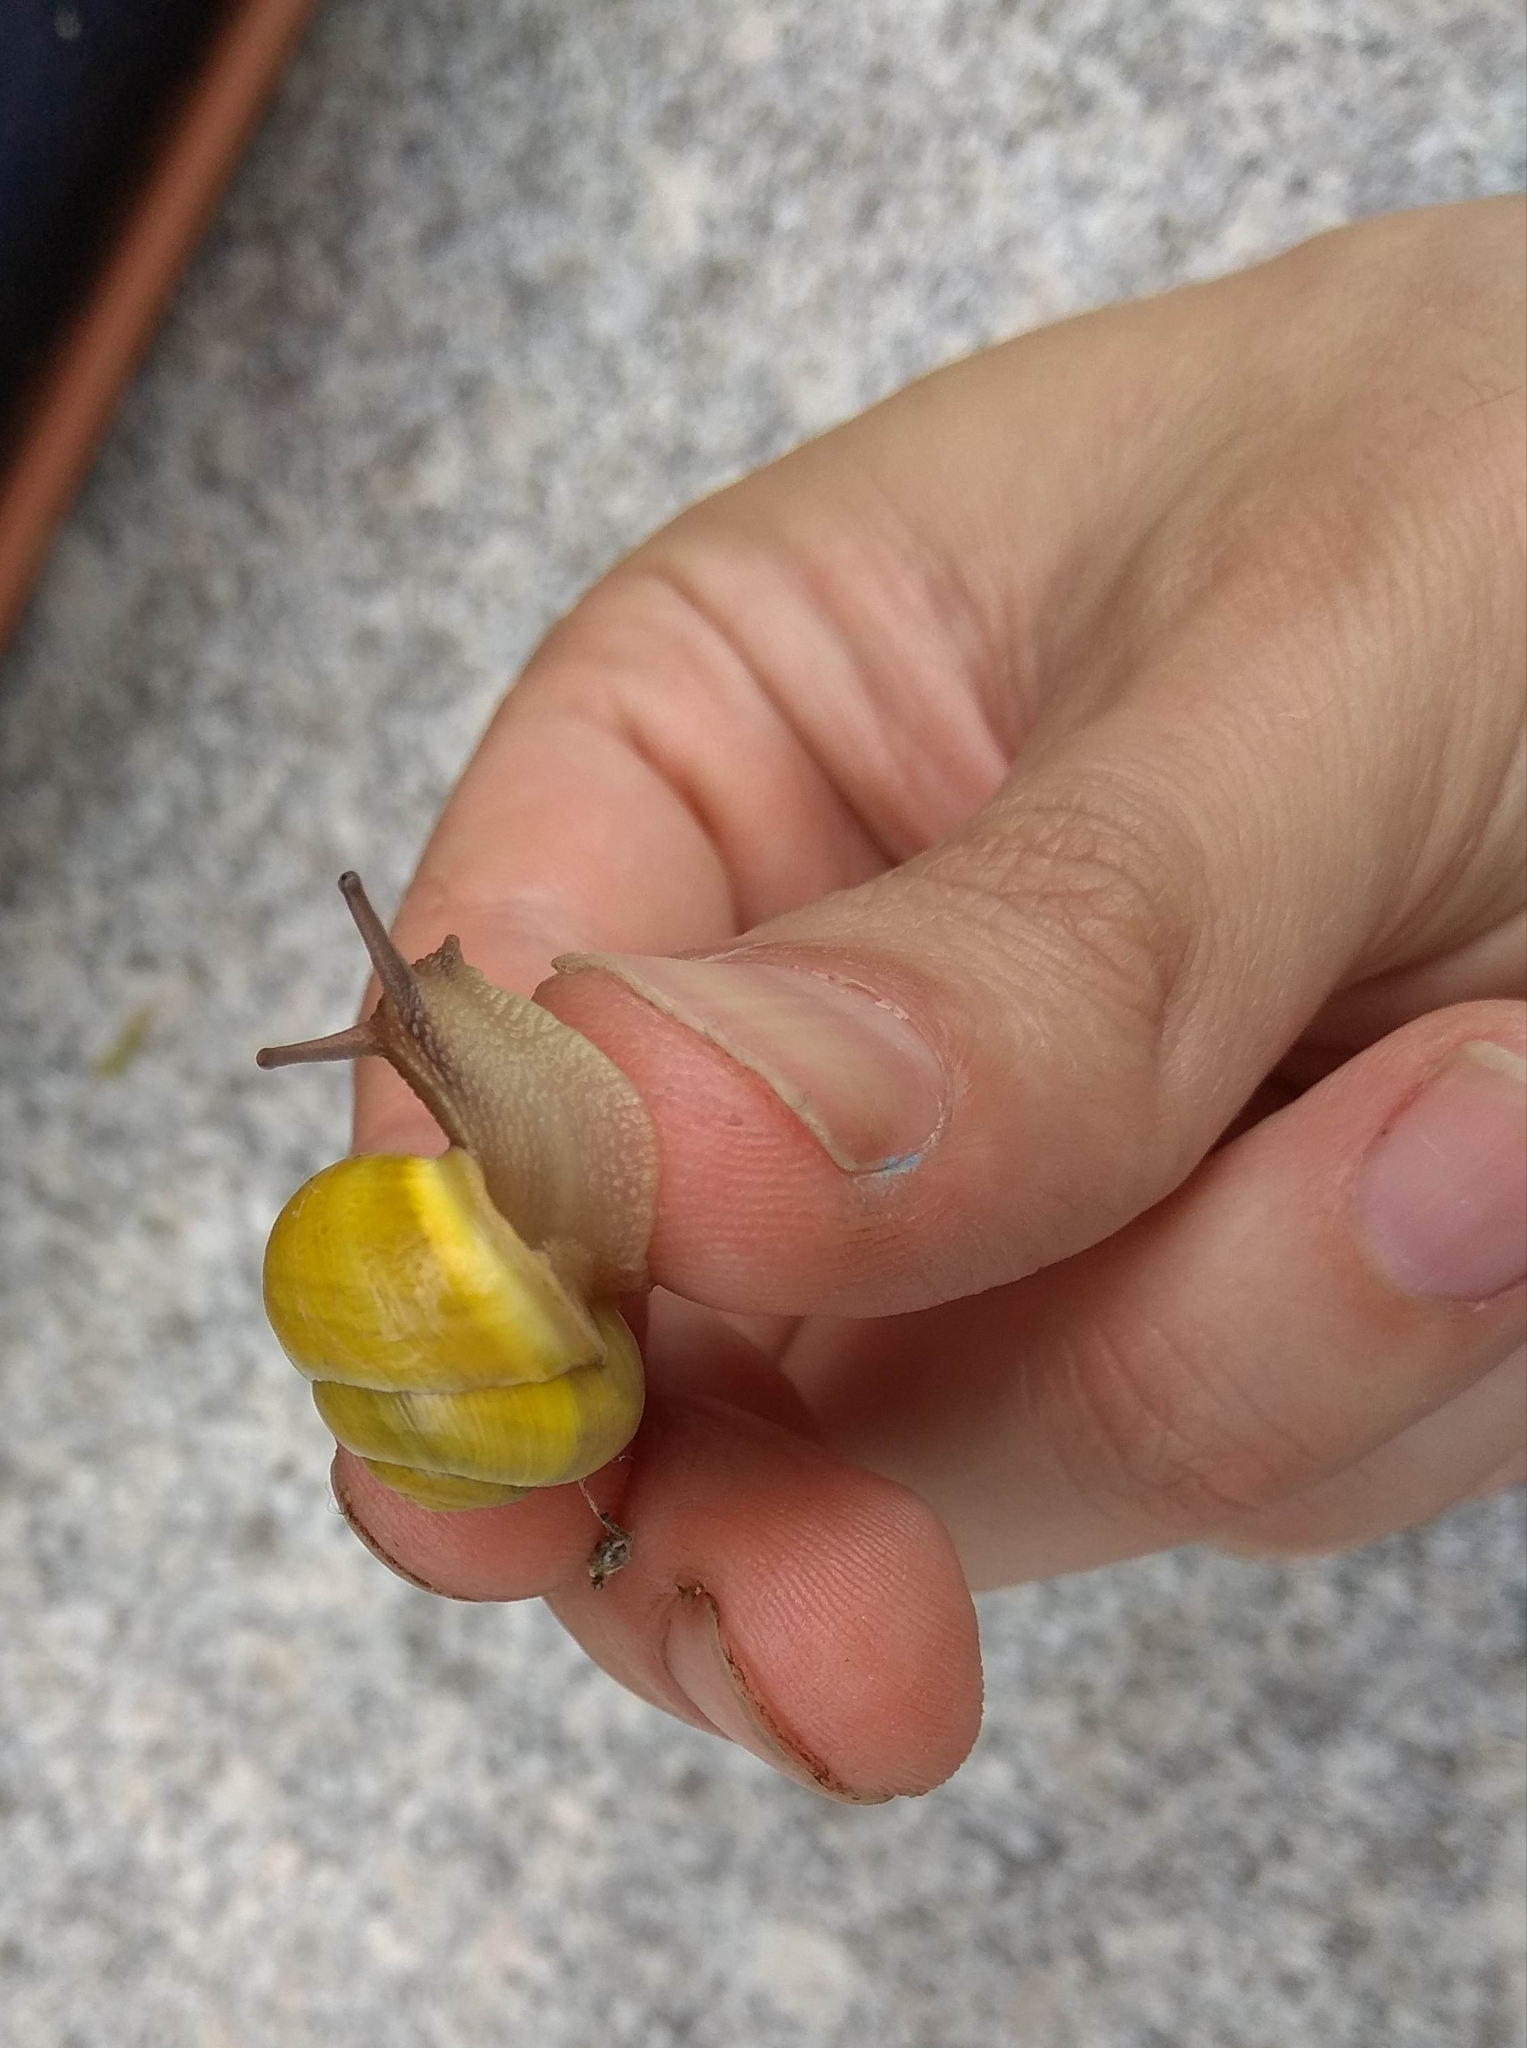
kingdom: Animalia
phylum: Mollusca
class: Gastropoda
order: Stylommatophora
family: Helicidae
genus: Cepaea
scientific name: Cepaea hortensis
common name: White-lip gardensnail
